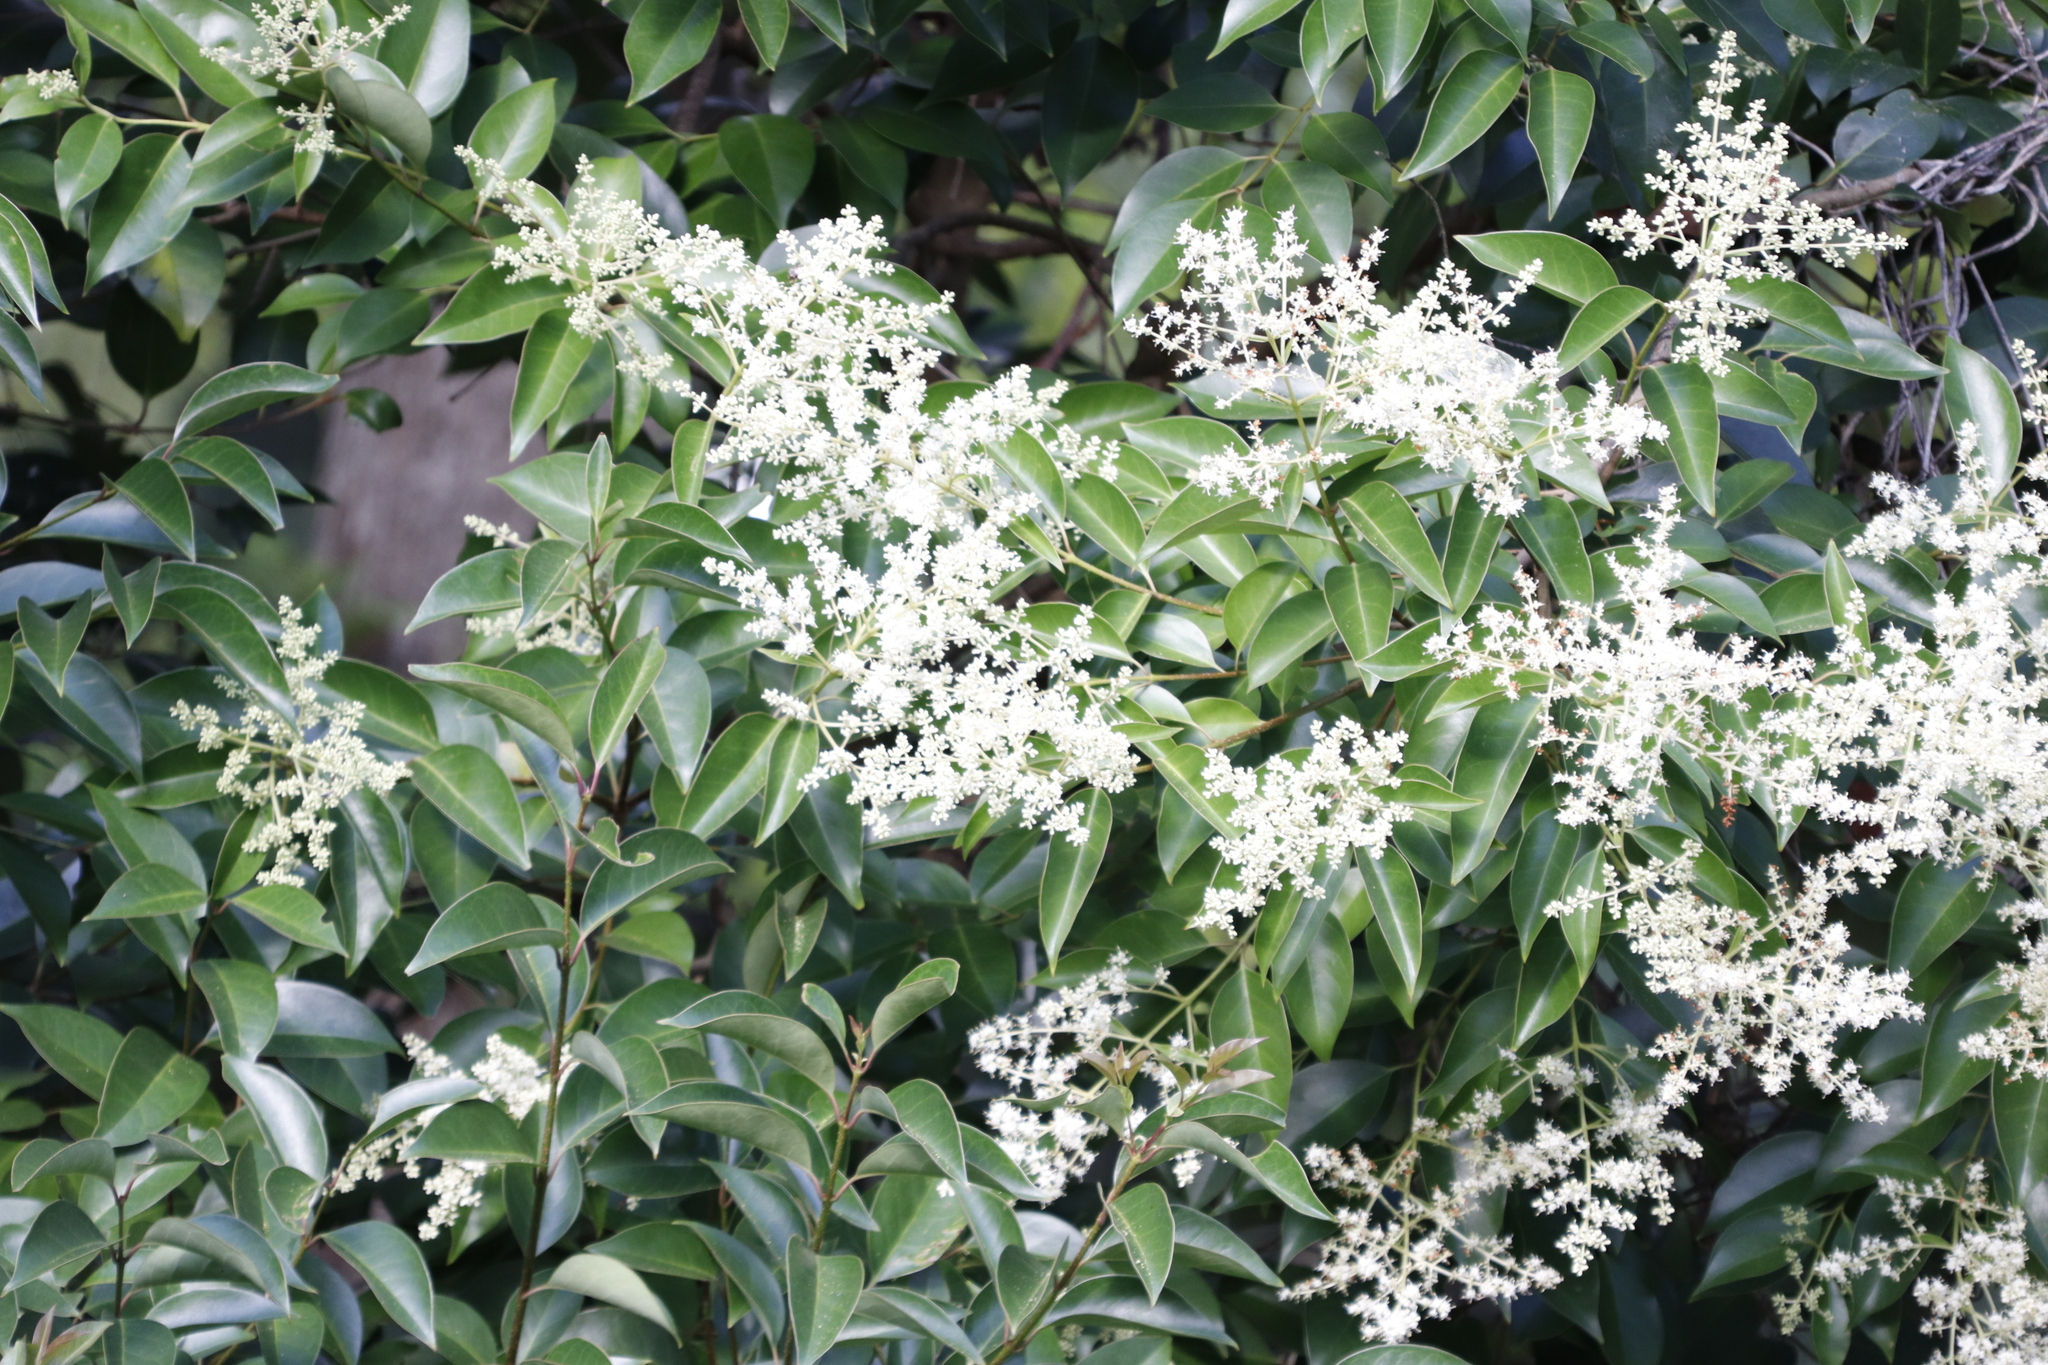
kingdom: Plantae
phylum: Tracheophyta
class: Magnoliopsida
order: Lamiales
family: Oleaceae
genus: Ligustrum
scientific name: Ligustrum lucidum
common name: Glossy privet
